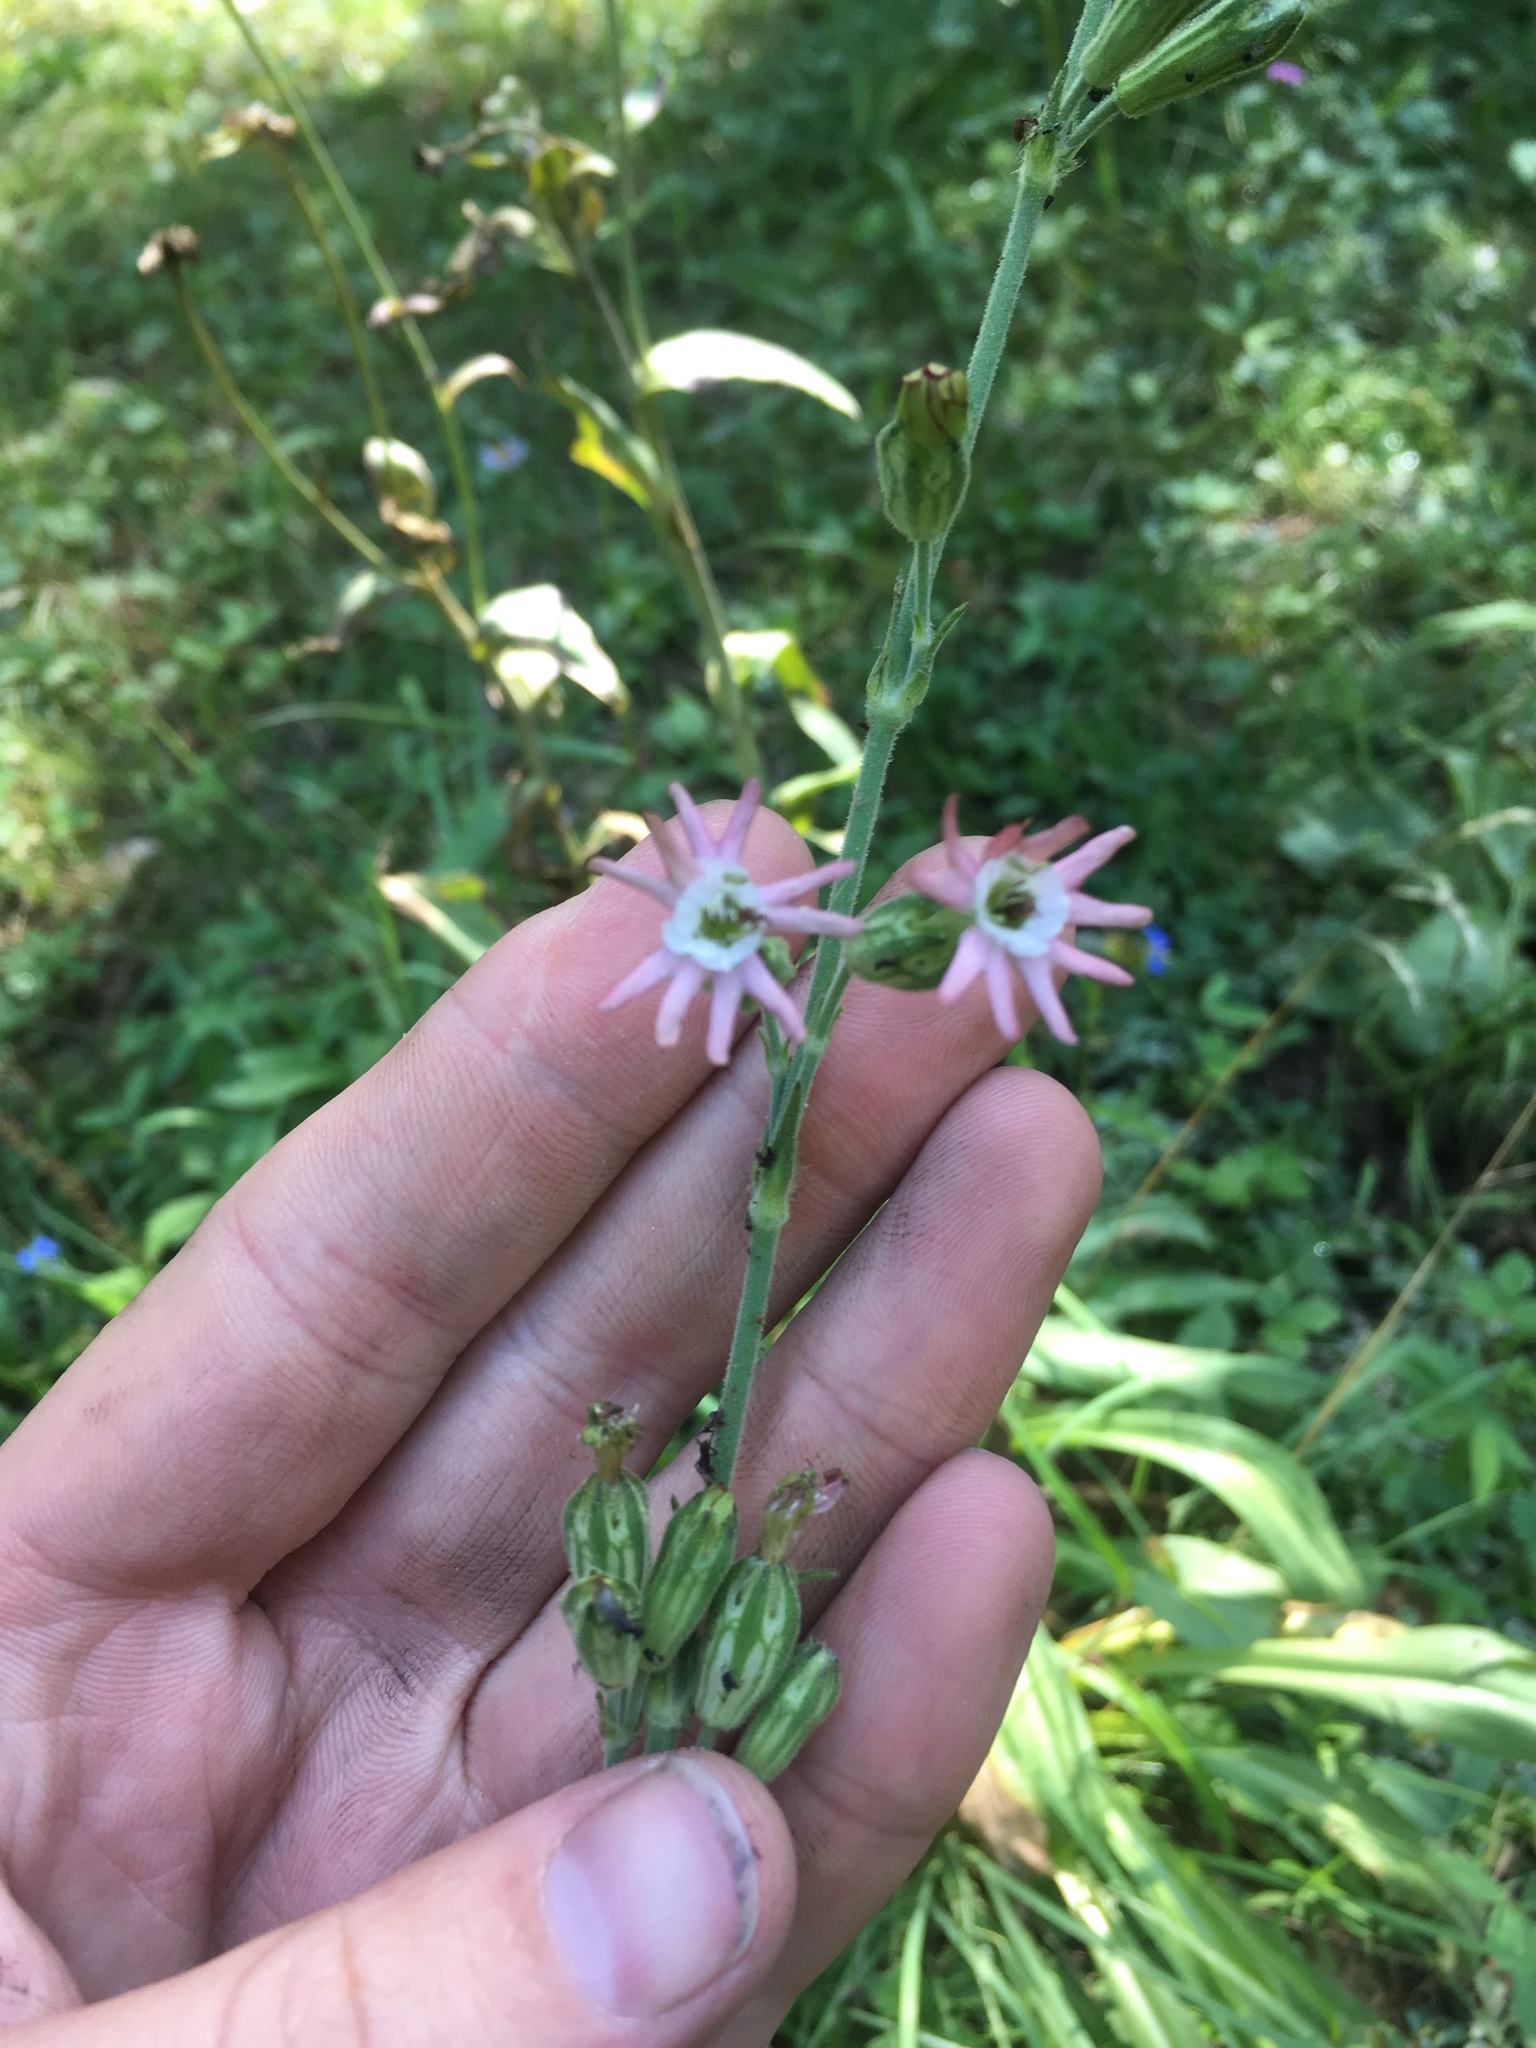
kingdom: Plantae
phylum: Tracheophyta
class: Magnoliopsida
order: Caryophyllales
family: Caryophyllaceae
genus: Silene
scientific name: Silene scouleri
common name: Scouler's campion
